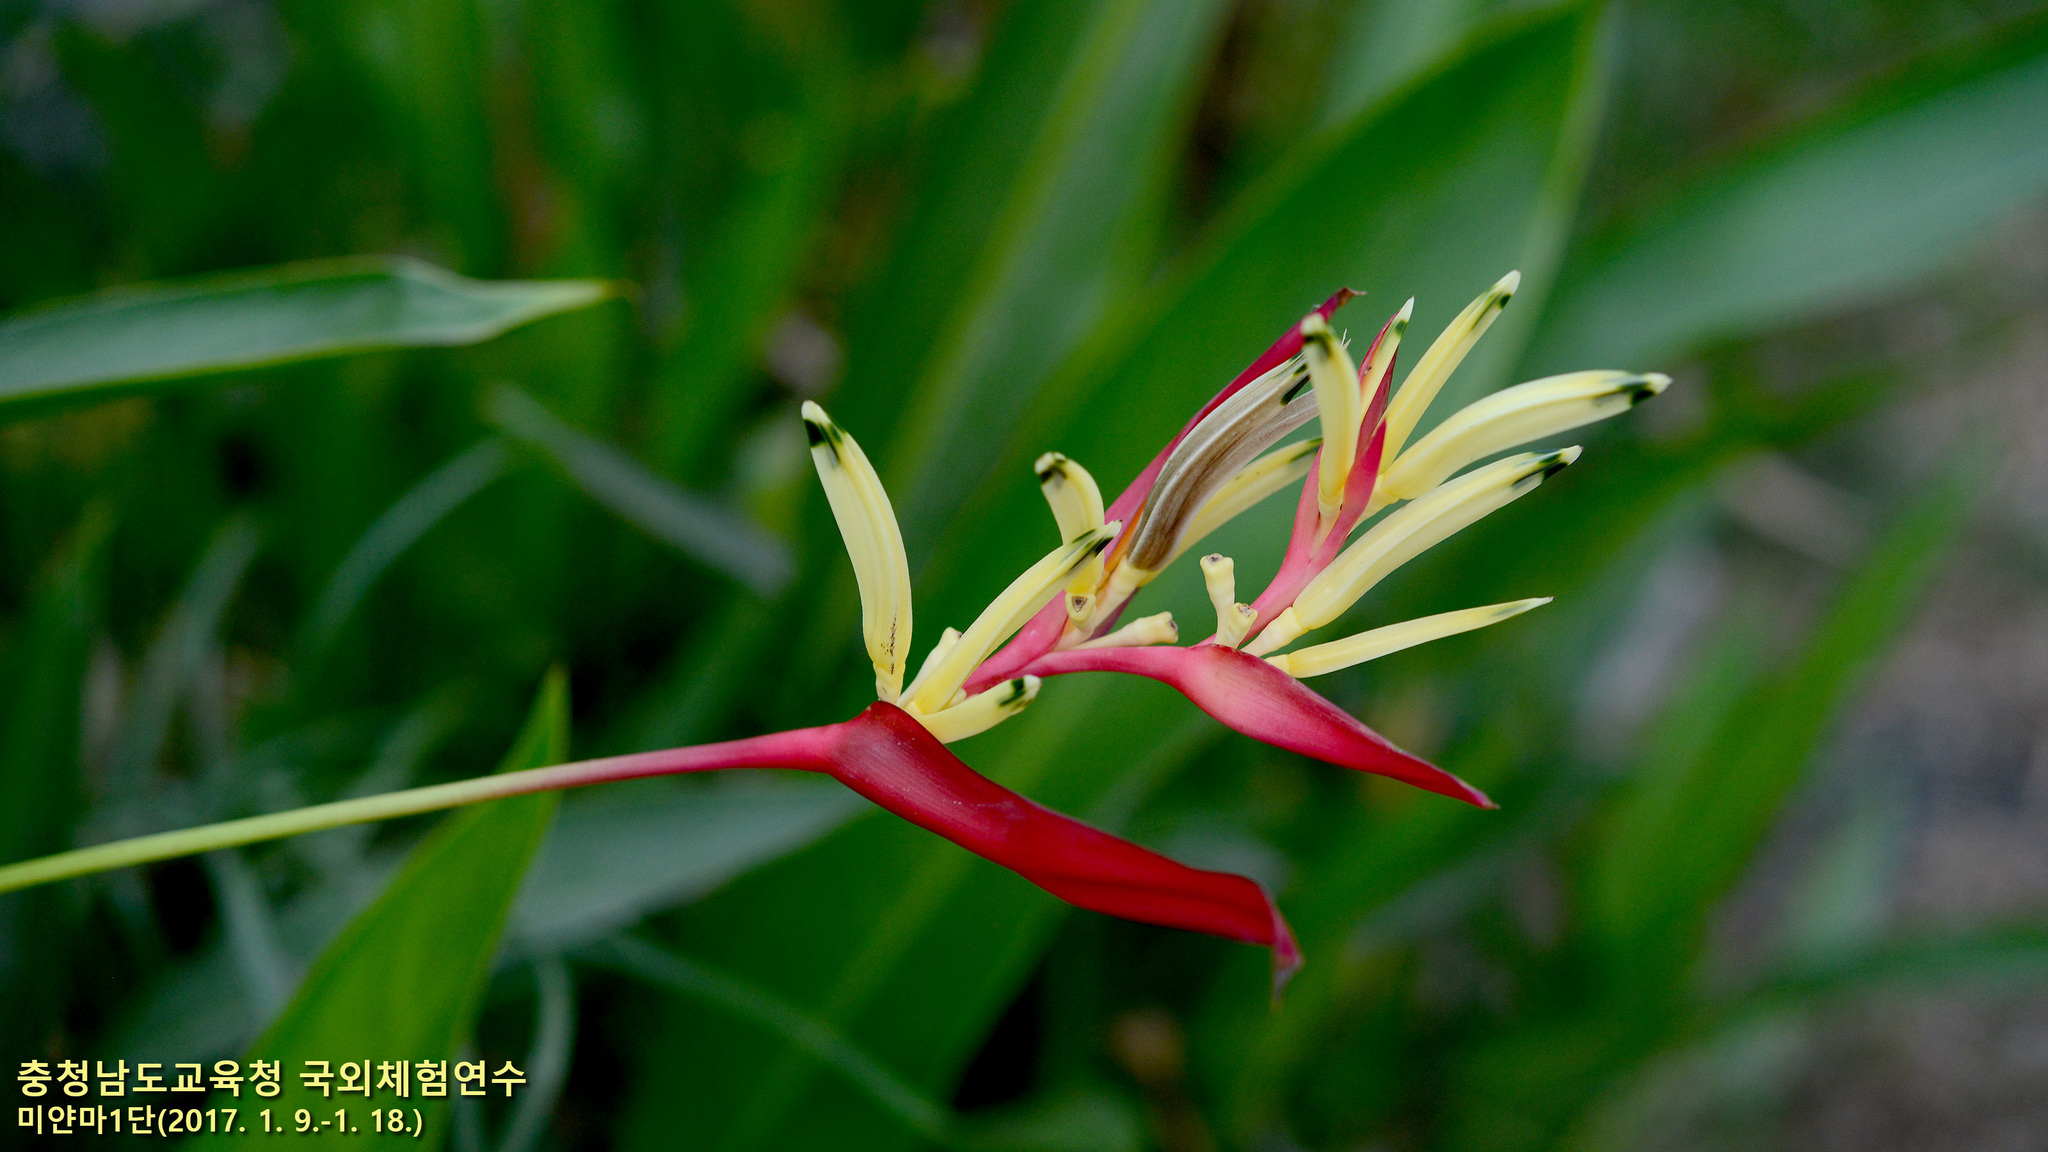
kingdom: Plantae
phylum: Tracheophyta
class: Liliopsida
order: Zingiberales
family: Heliconiaceae
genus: Heliconia
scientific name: Heliconia psittacorum
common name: Parrot's-flower
